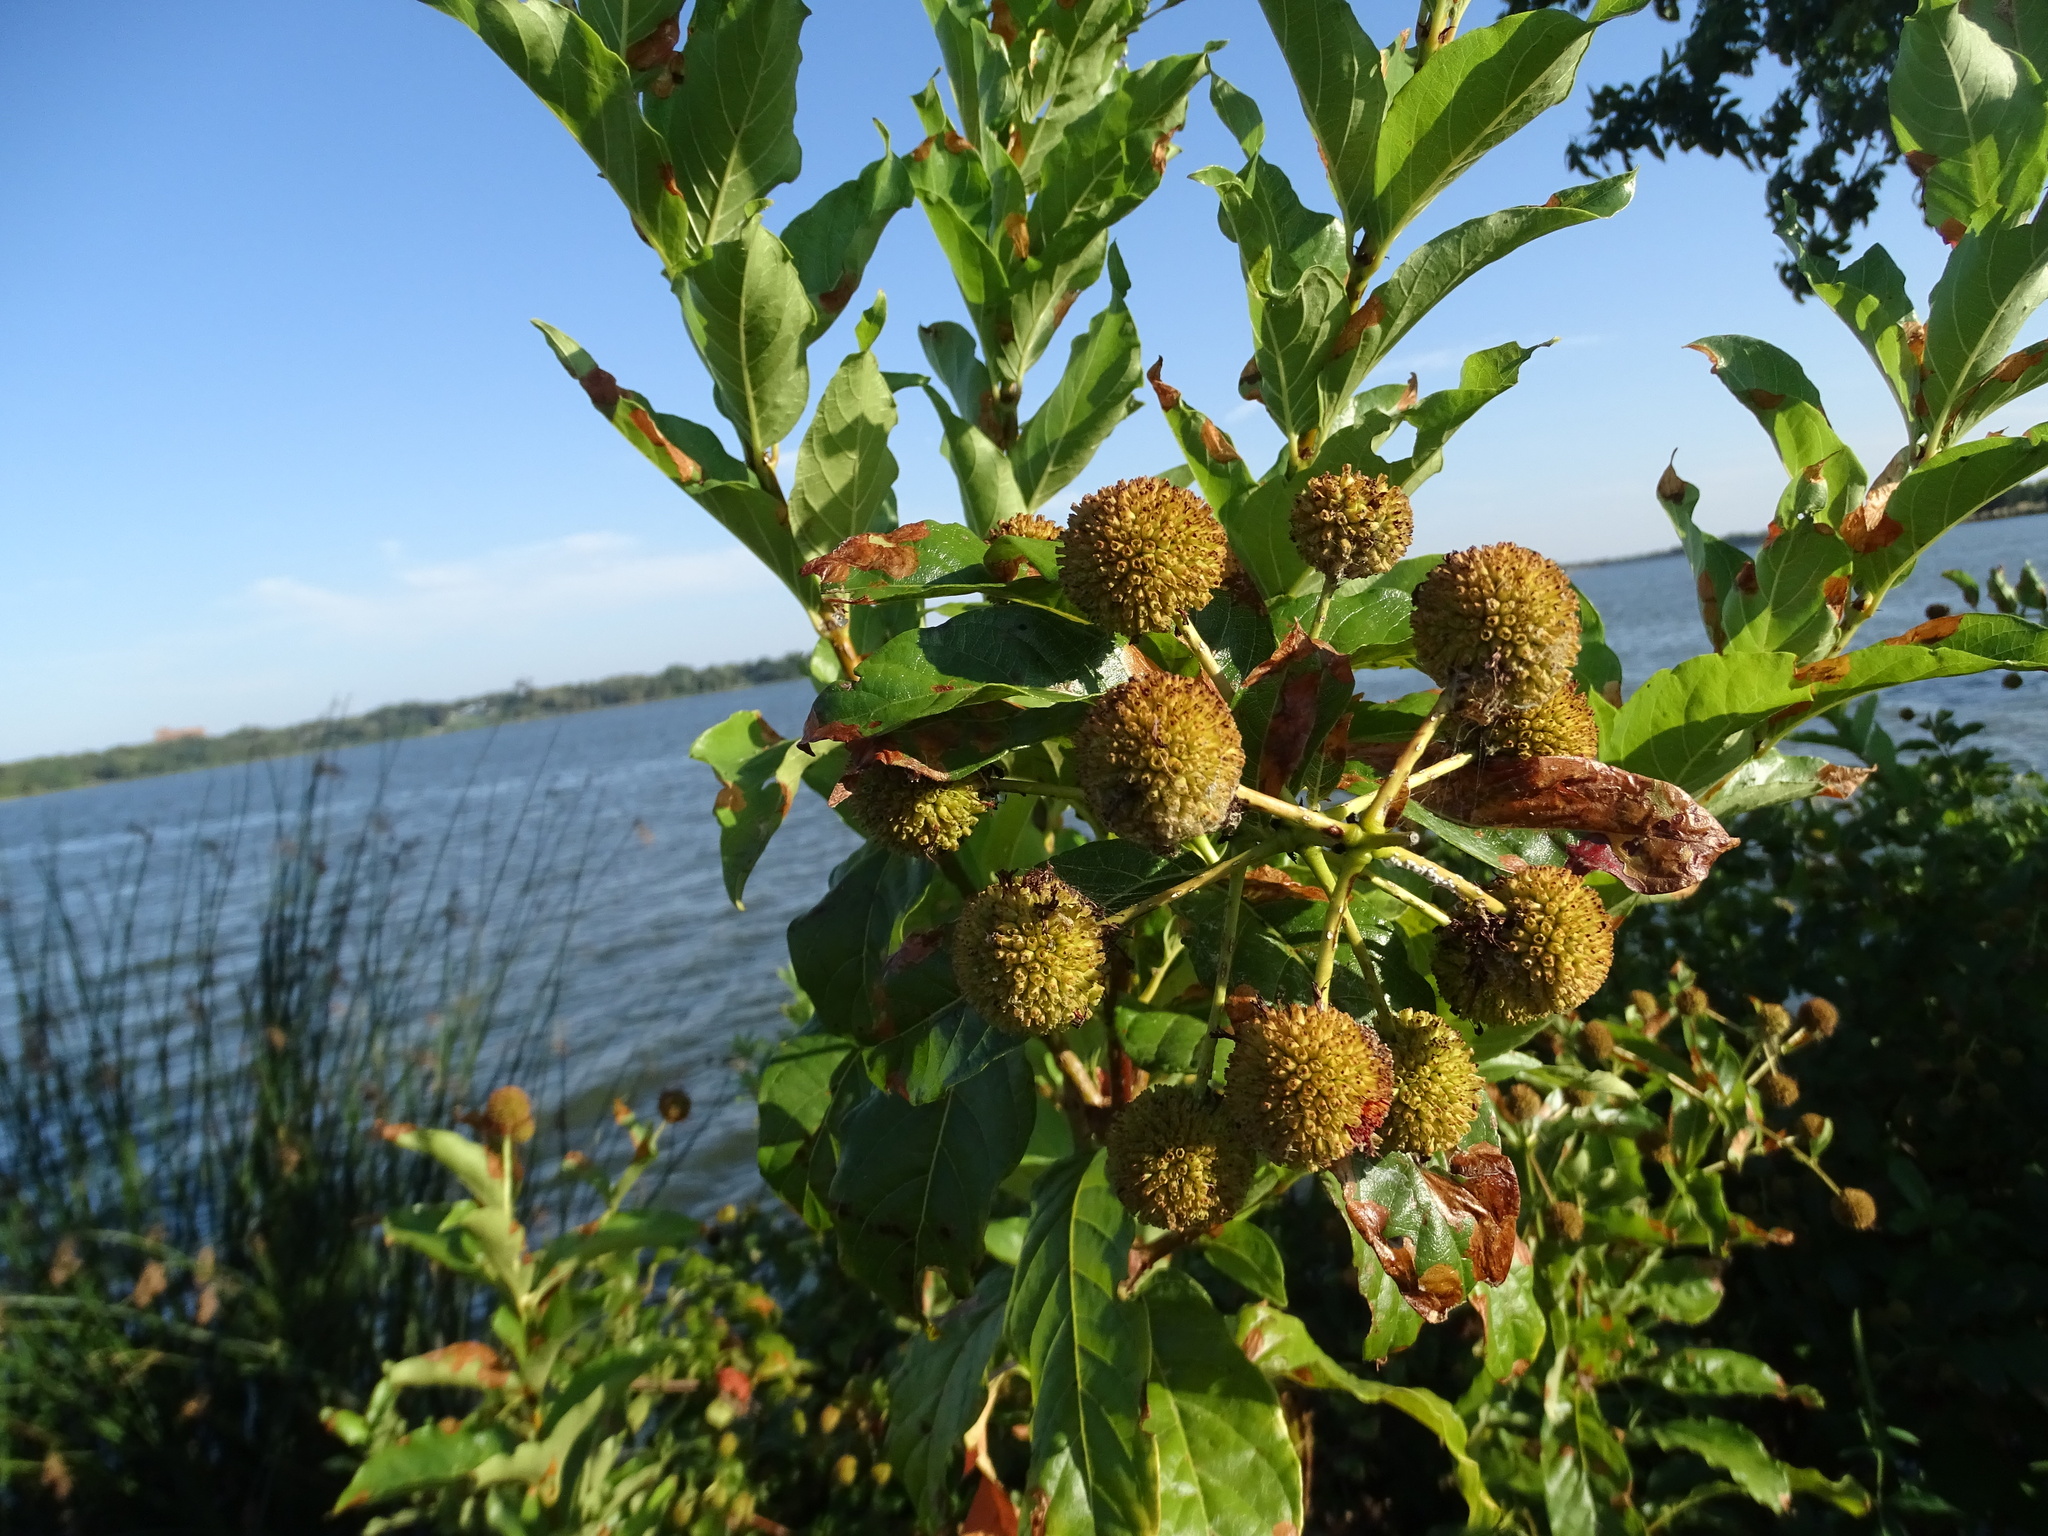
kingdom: Plantae
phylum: Tracheophyta
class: Magnoliopsida
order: Gentianales
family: Rubiaceae
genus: Cephalanthus
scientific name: Cephalanthus occidentalis
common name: Button-willow
